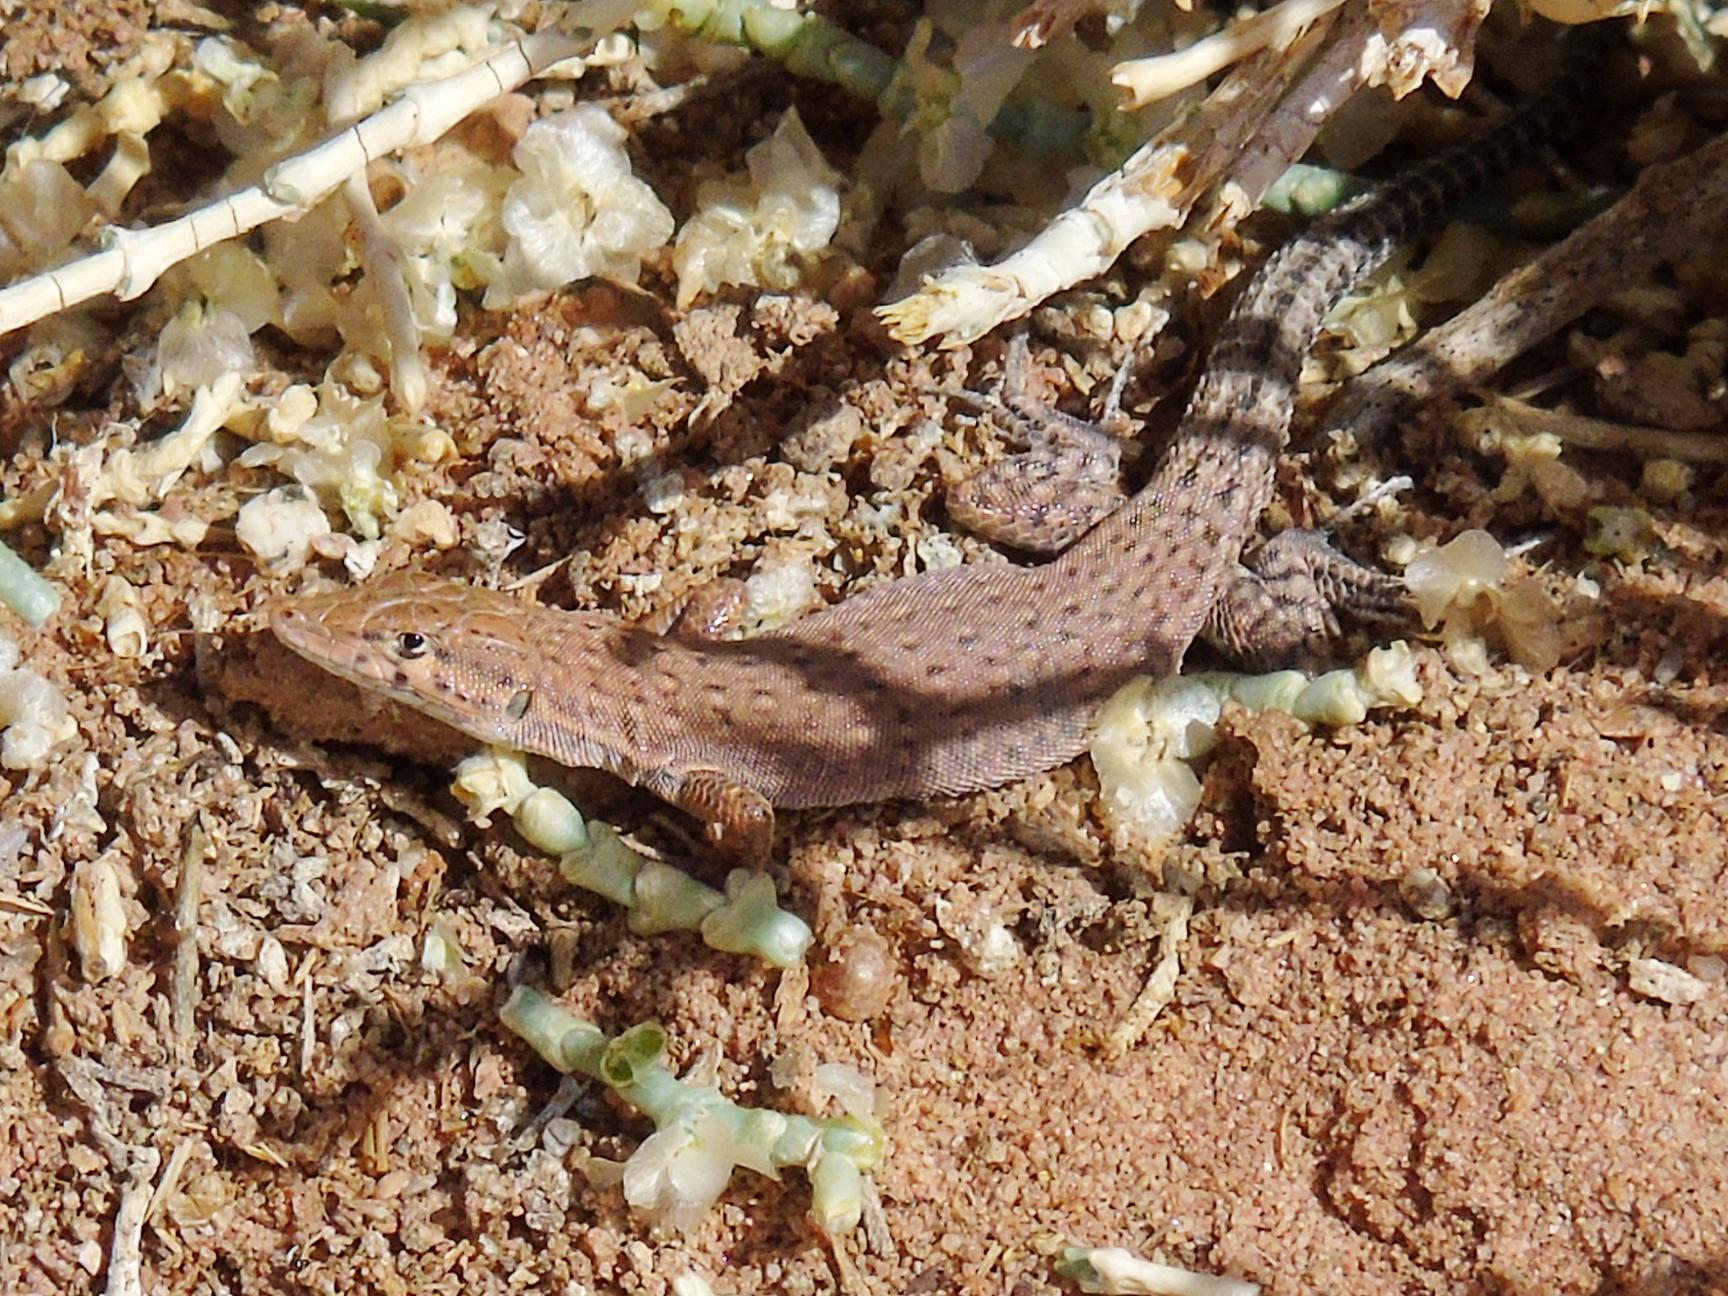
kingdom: Animalia
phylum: Chordata
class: Squamata
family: Lacertidae
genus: Mesalina
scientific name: Mesalina bahaeldini
